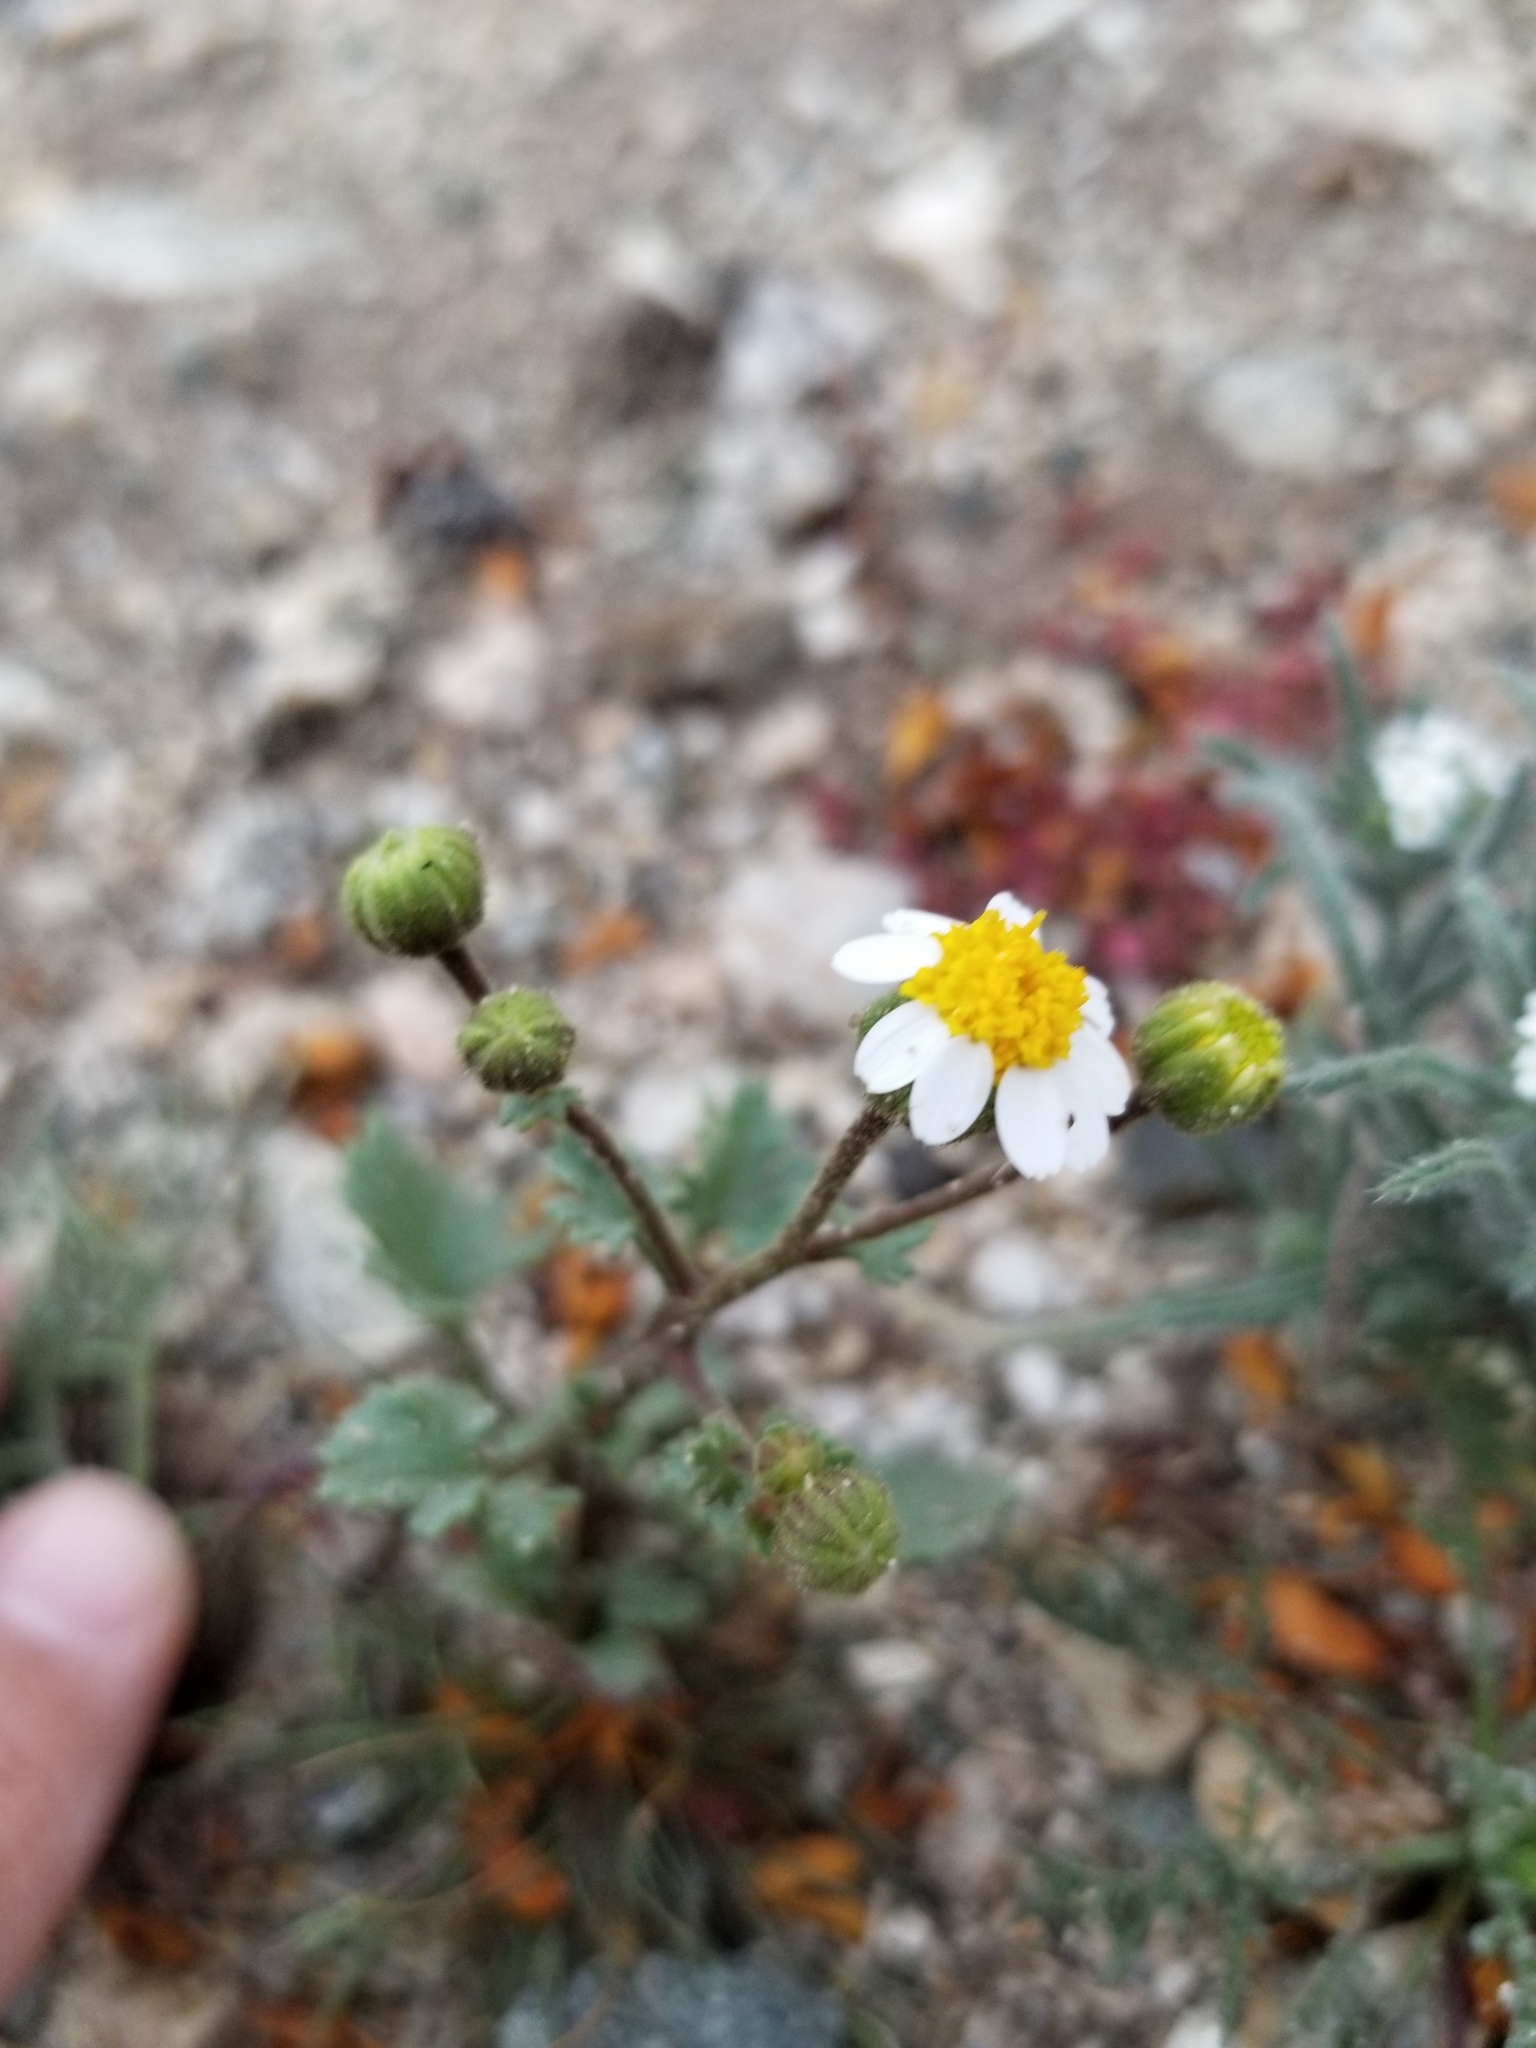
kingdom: Plantae
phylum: Tracheophyta
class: Magnoliopsida
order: Asterales
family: Asteraceae
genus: Laphamia
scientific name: Laphamia emoryi
